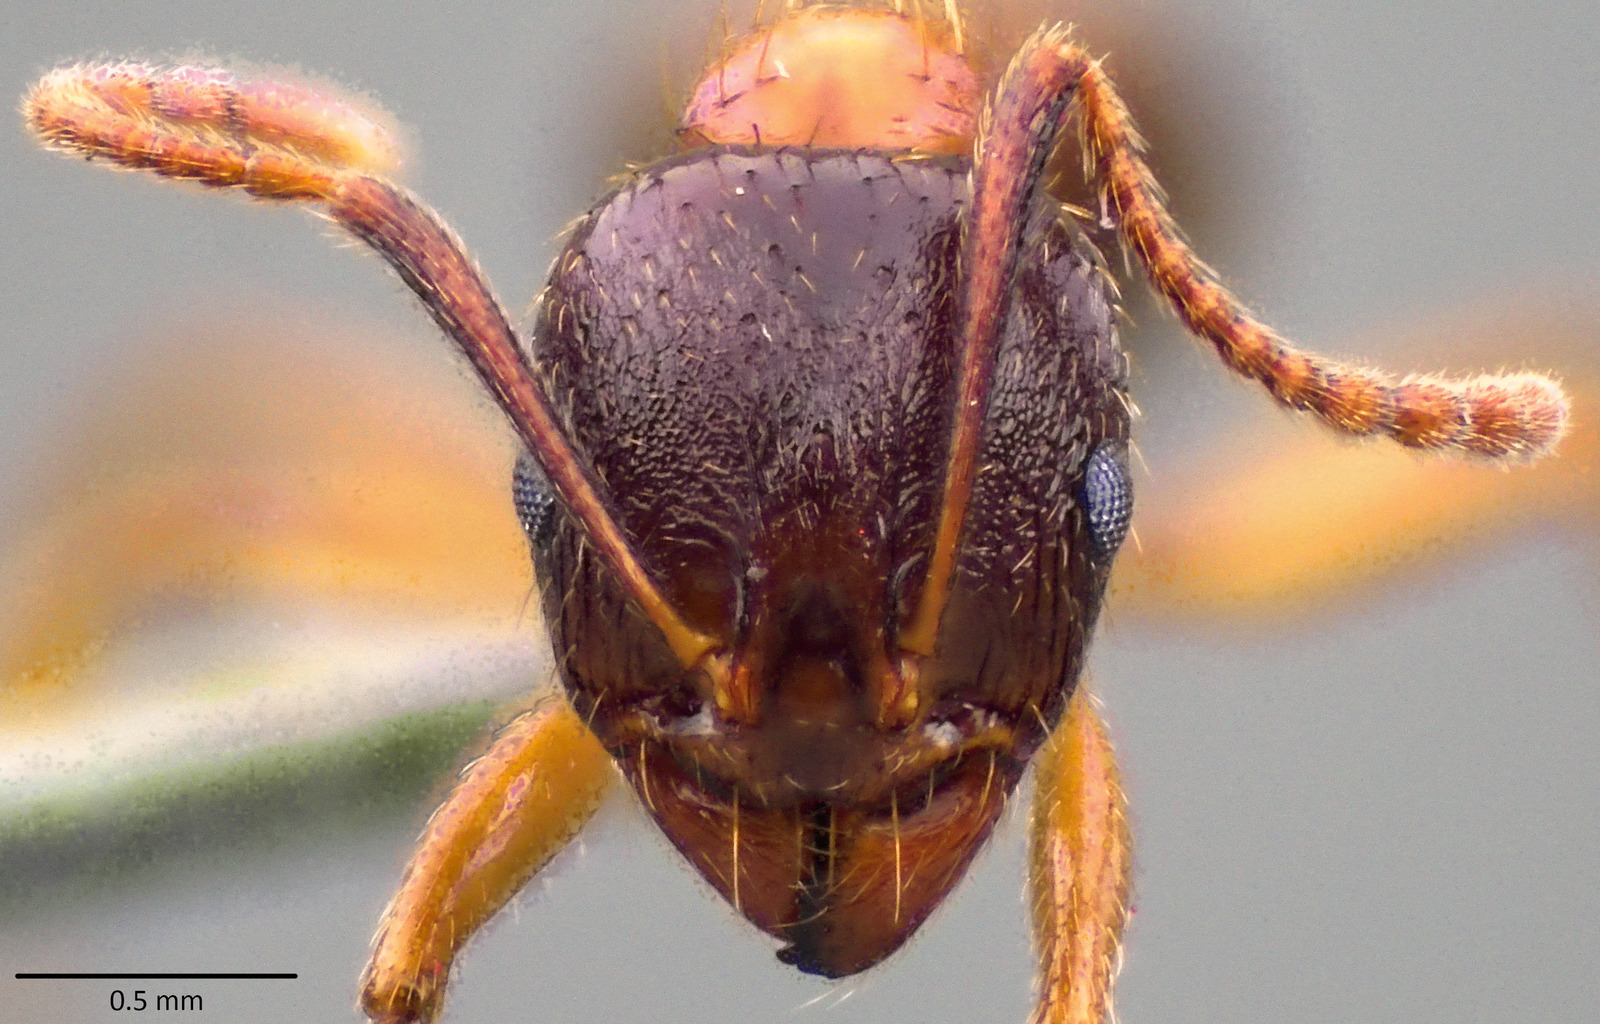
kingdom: Animalia
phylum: Arthropoda
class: Insecta
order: Hymenoptera
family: Formicidae
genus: Aphaenogaster
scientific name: Aphaenogaster subterranea
